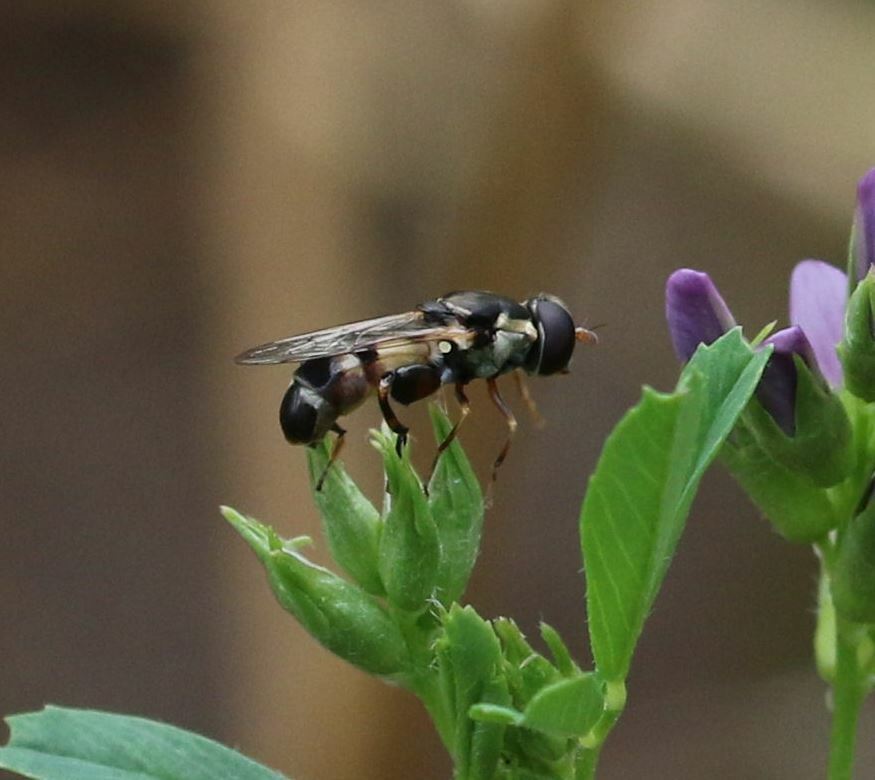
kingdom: Animalia
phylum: Arthropoda
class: Insecta
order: Diptera
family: Syrphidae
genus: Syritta
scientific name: Syritta pipiens
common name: Hover fly
